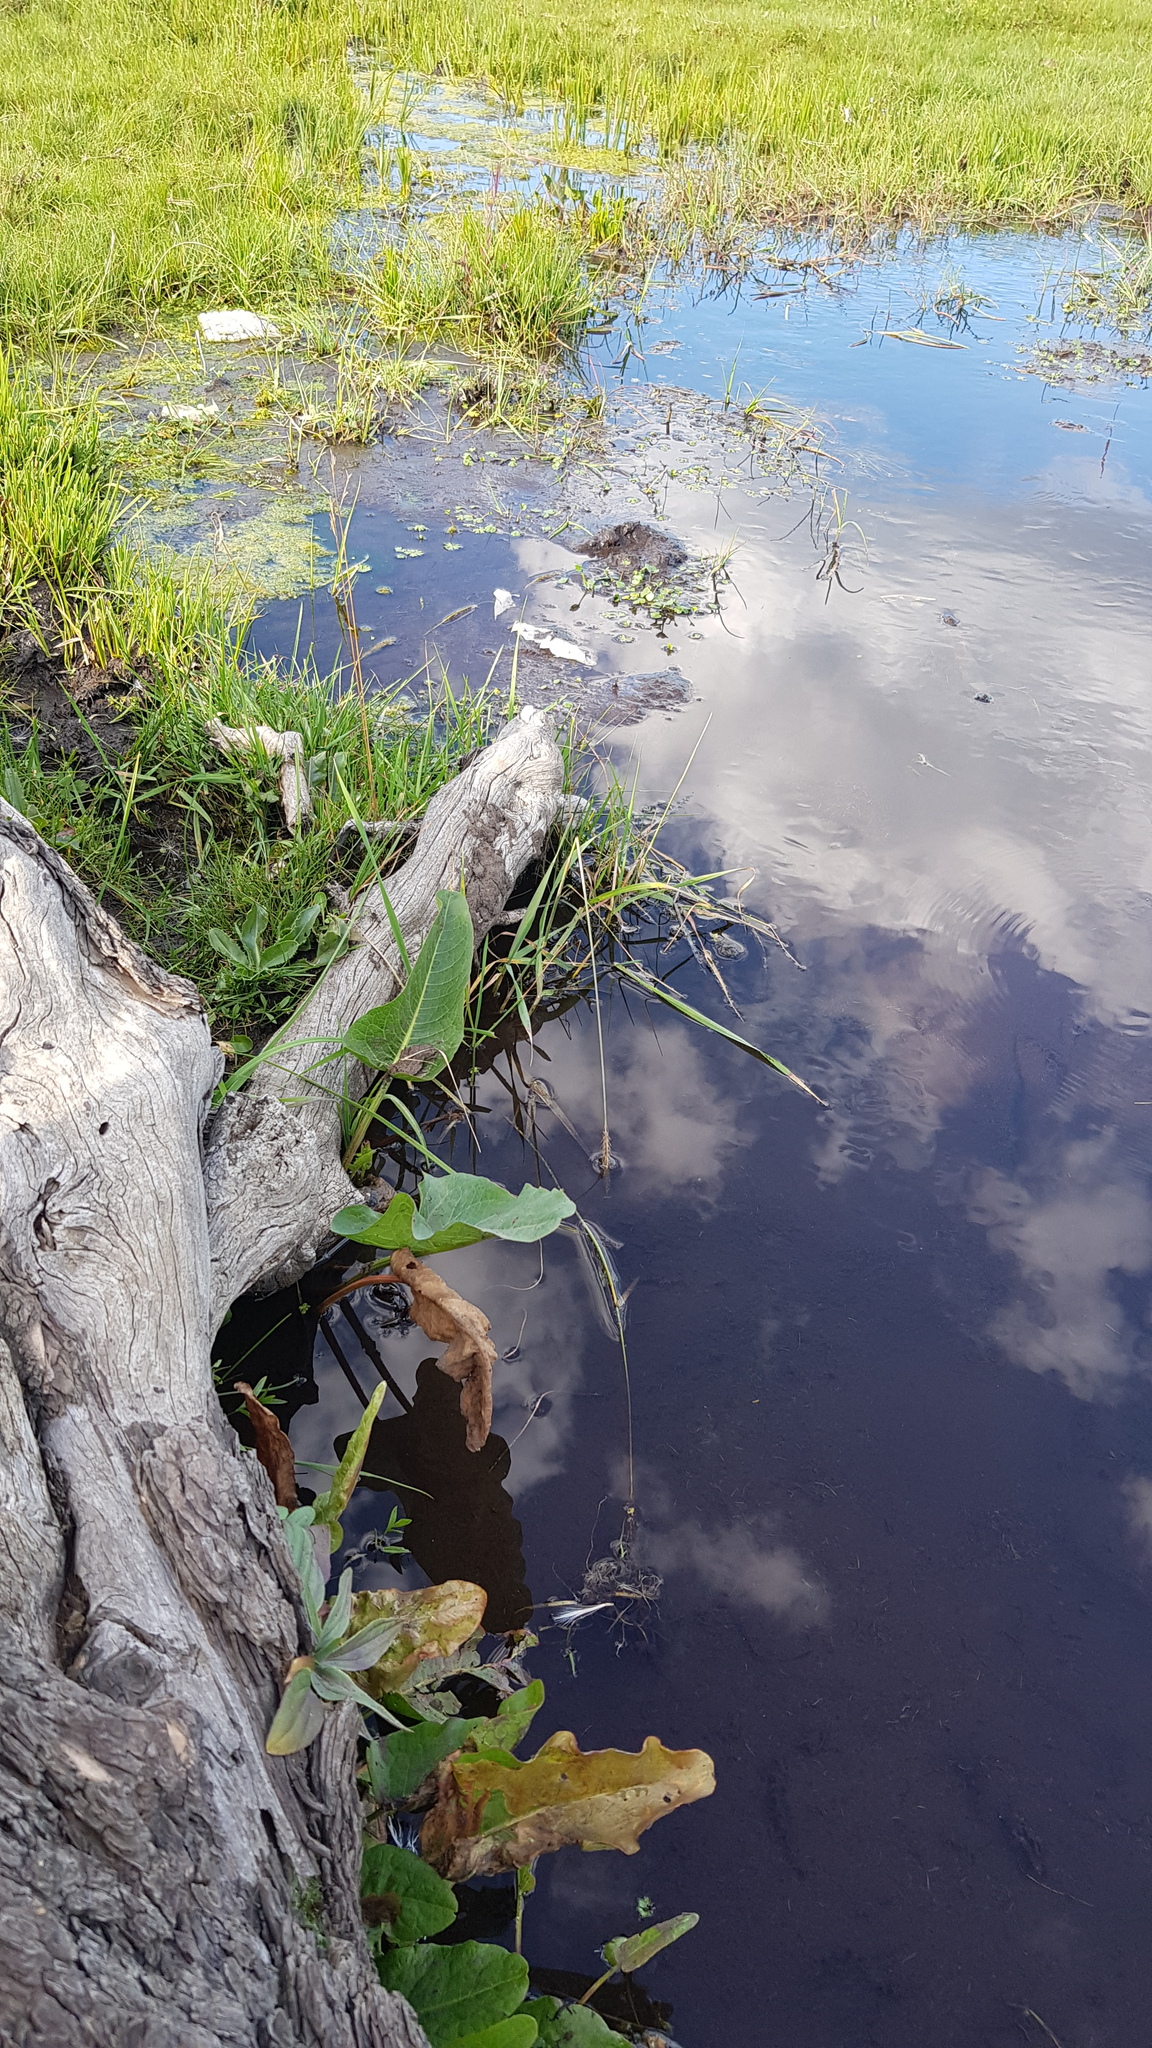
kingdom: Plantae
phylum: Tracheophyta
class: Magnoliopsida
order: Lamiales
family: Plantaginaceae
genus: Plantago
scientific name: Plantago depressa
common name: Depressed plantain
